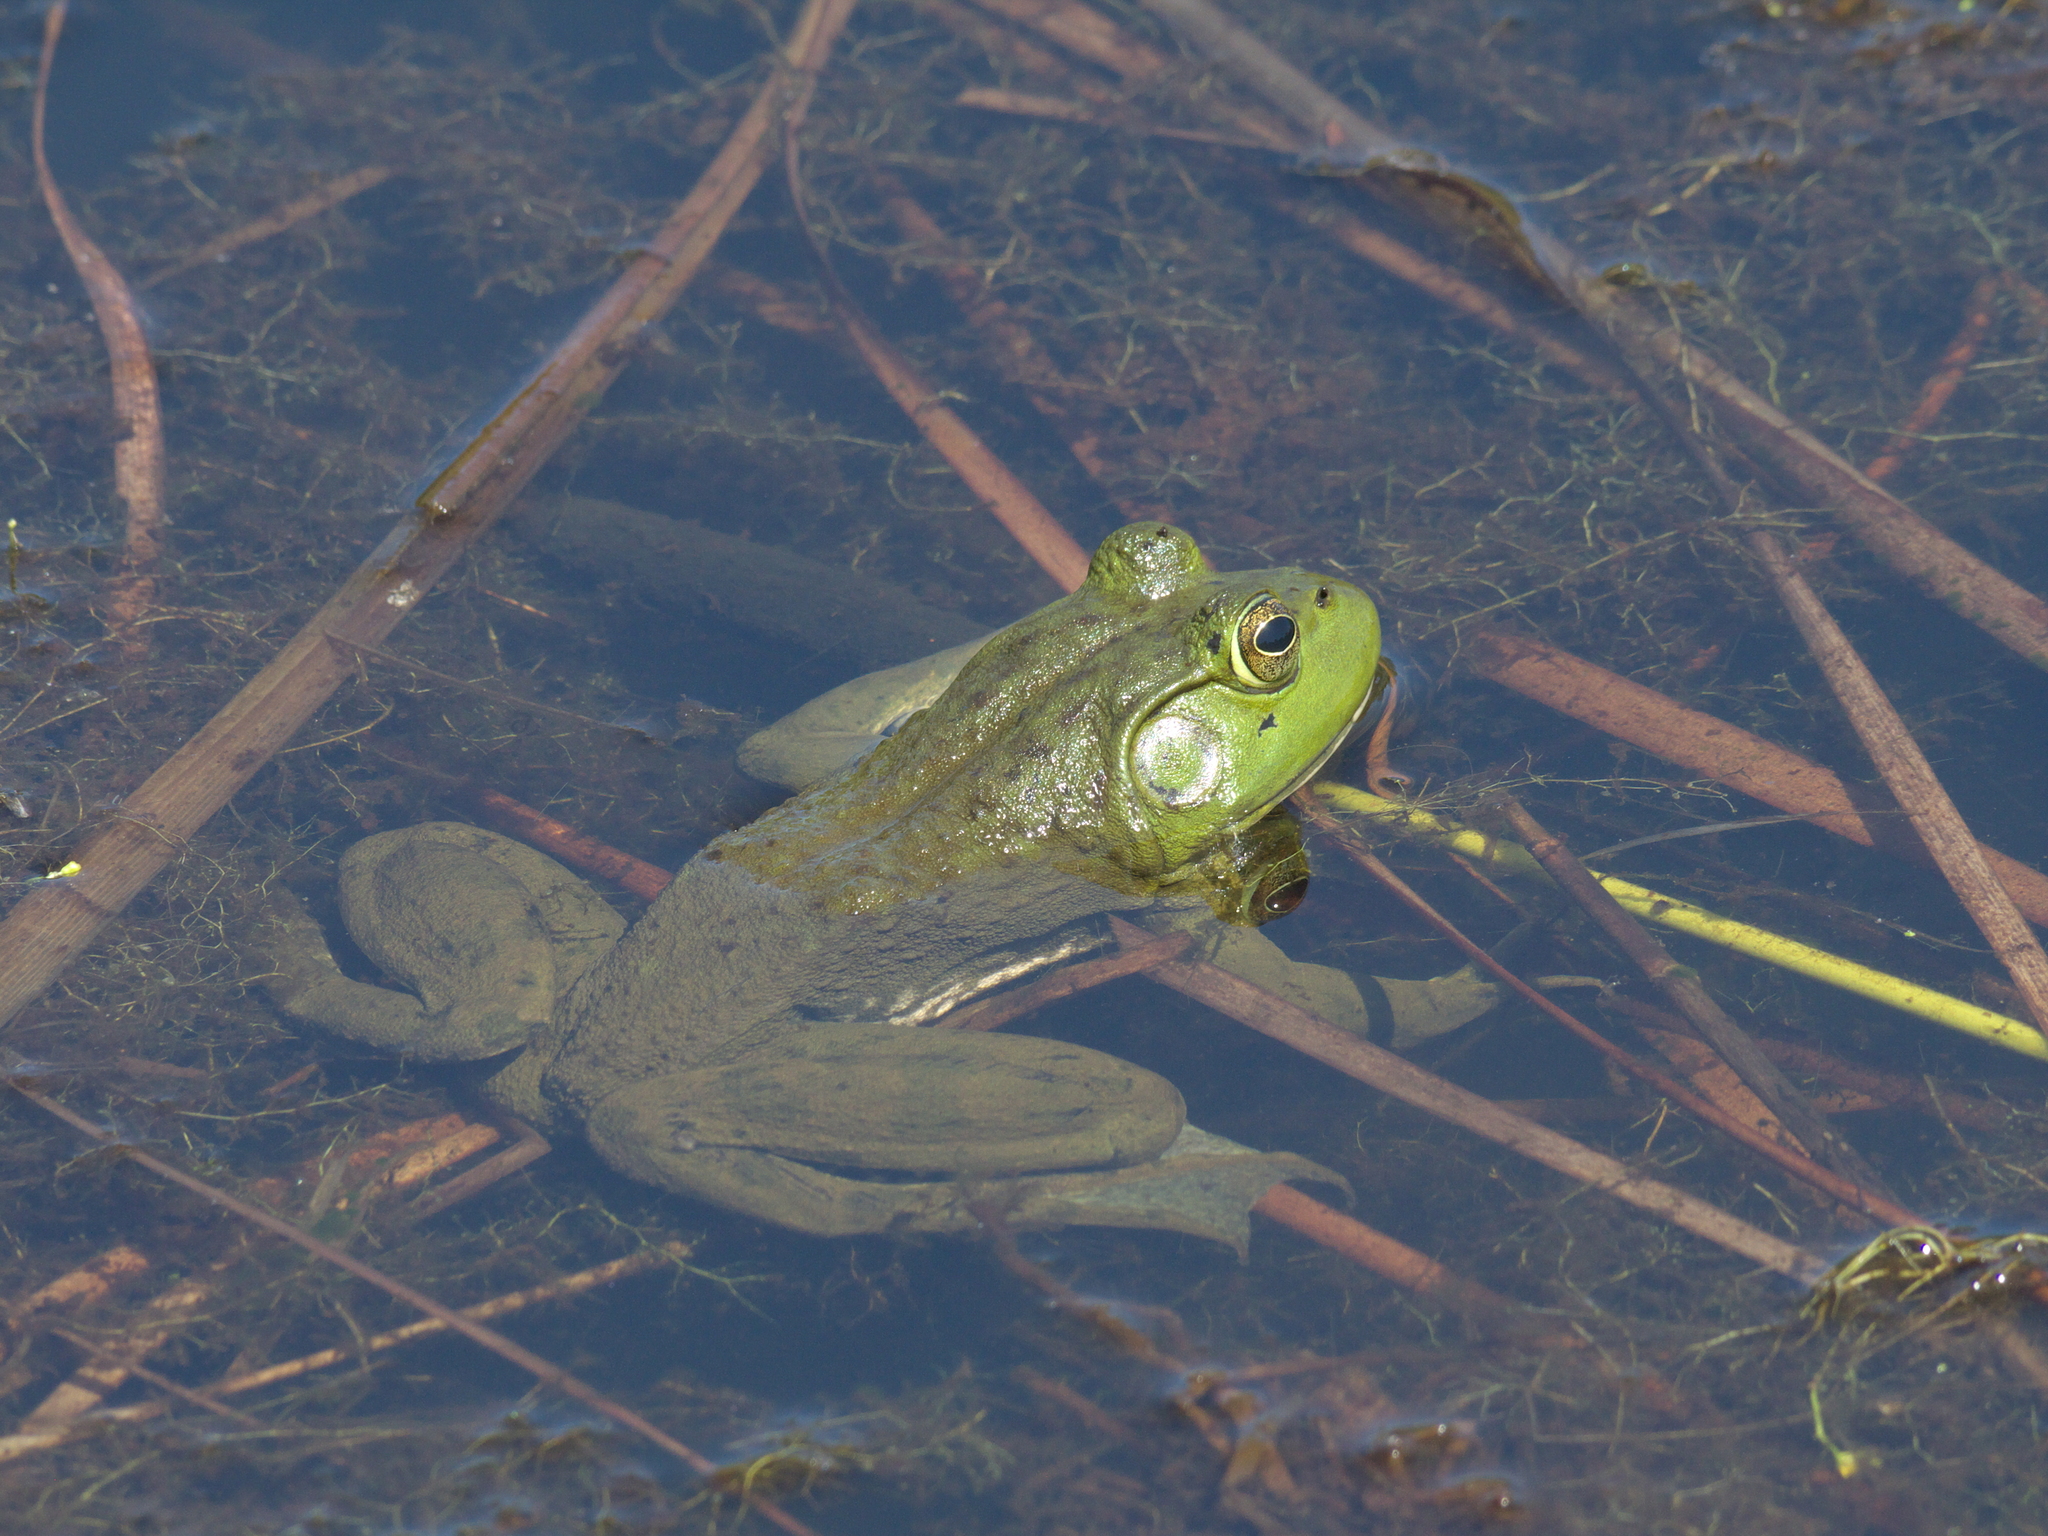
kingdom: Animalia
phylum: Chordata
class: Amphibia
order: Anura
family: Ranidae
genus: Lithobates
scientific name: Lithobates catesbeianus
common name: American bullfrog
